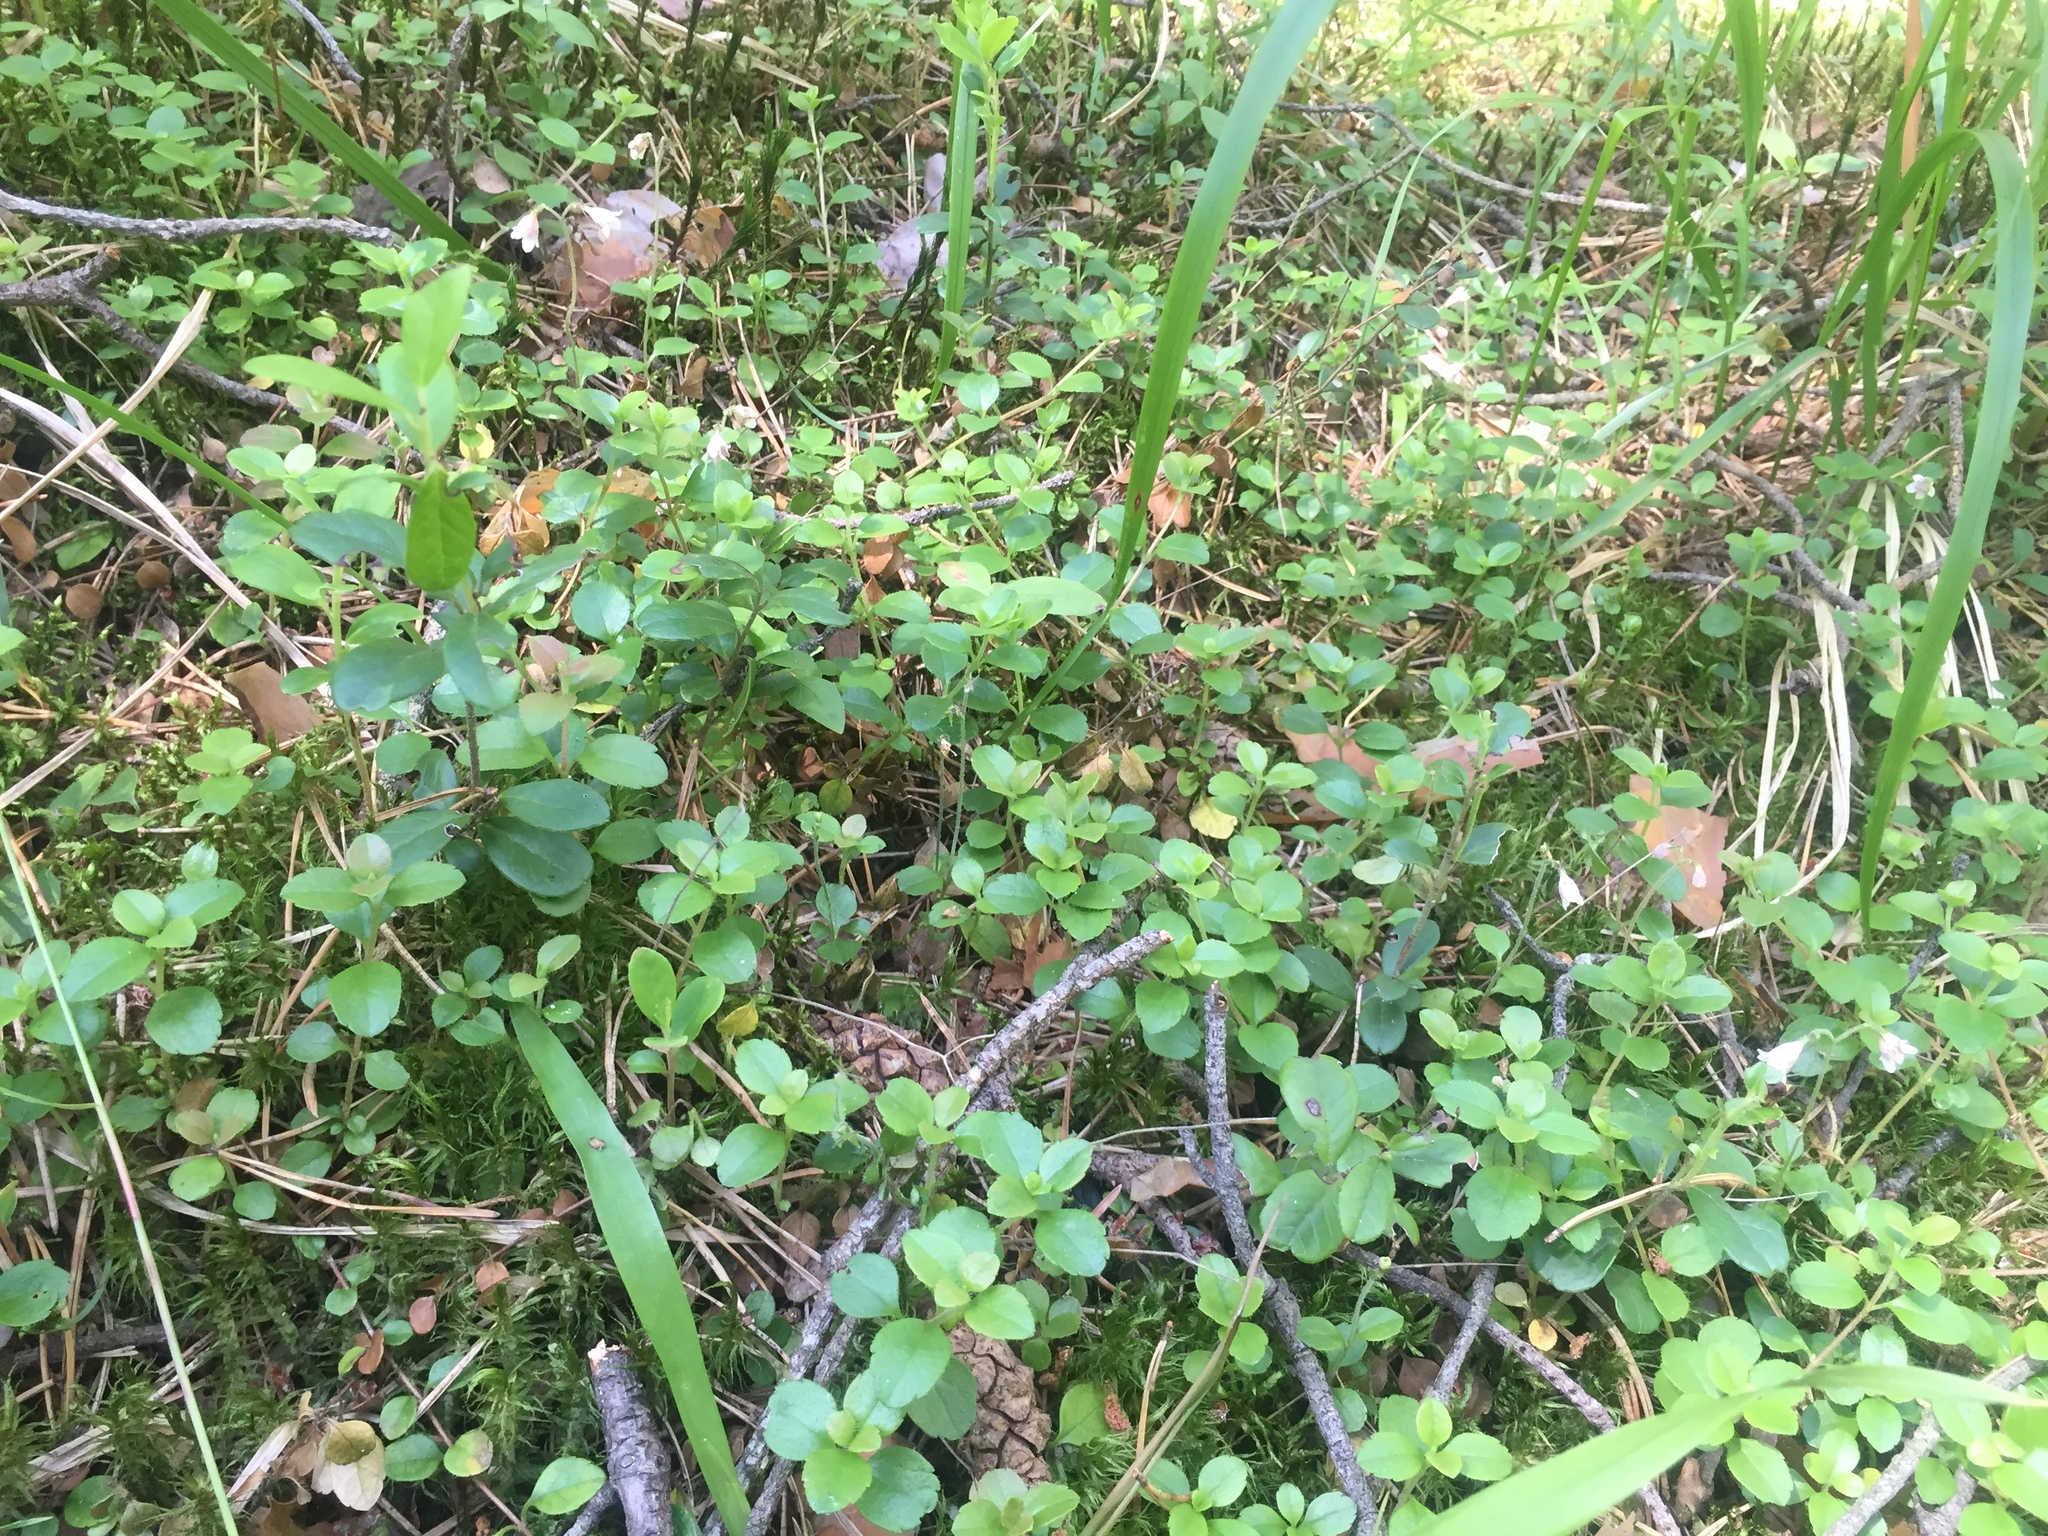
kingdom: Plantae
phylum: Tracheophyta
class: Magnoliopsida
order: Dipsacales
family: Caprifoliaceae
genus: Linnaea
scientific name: Linnaea borealis
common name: Twinflower
